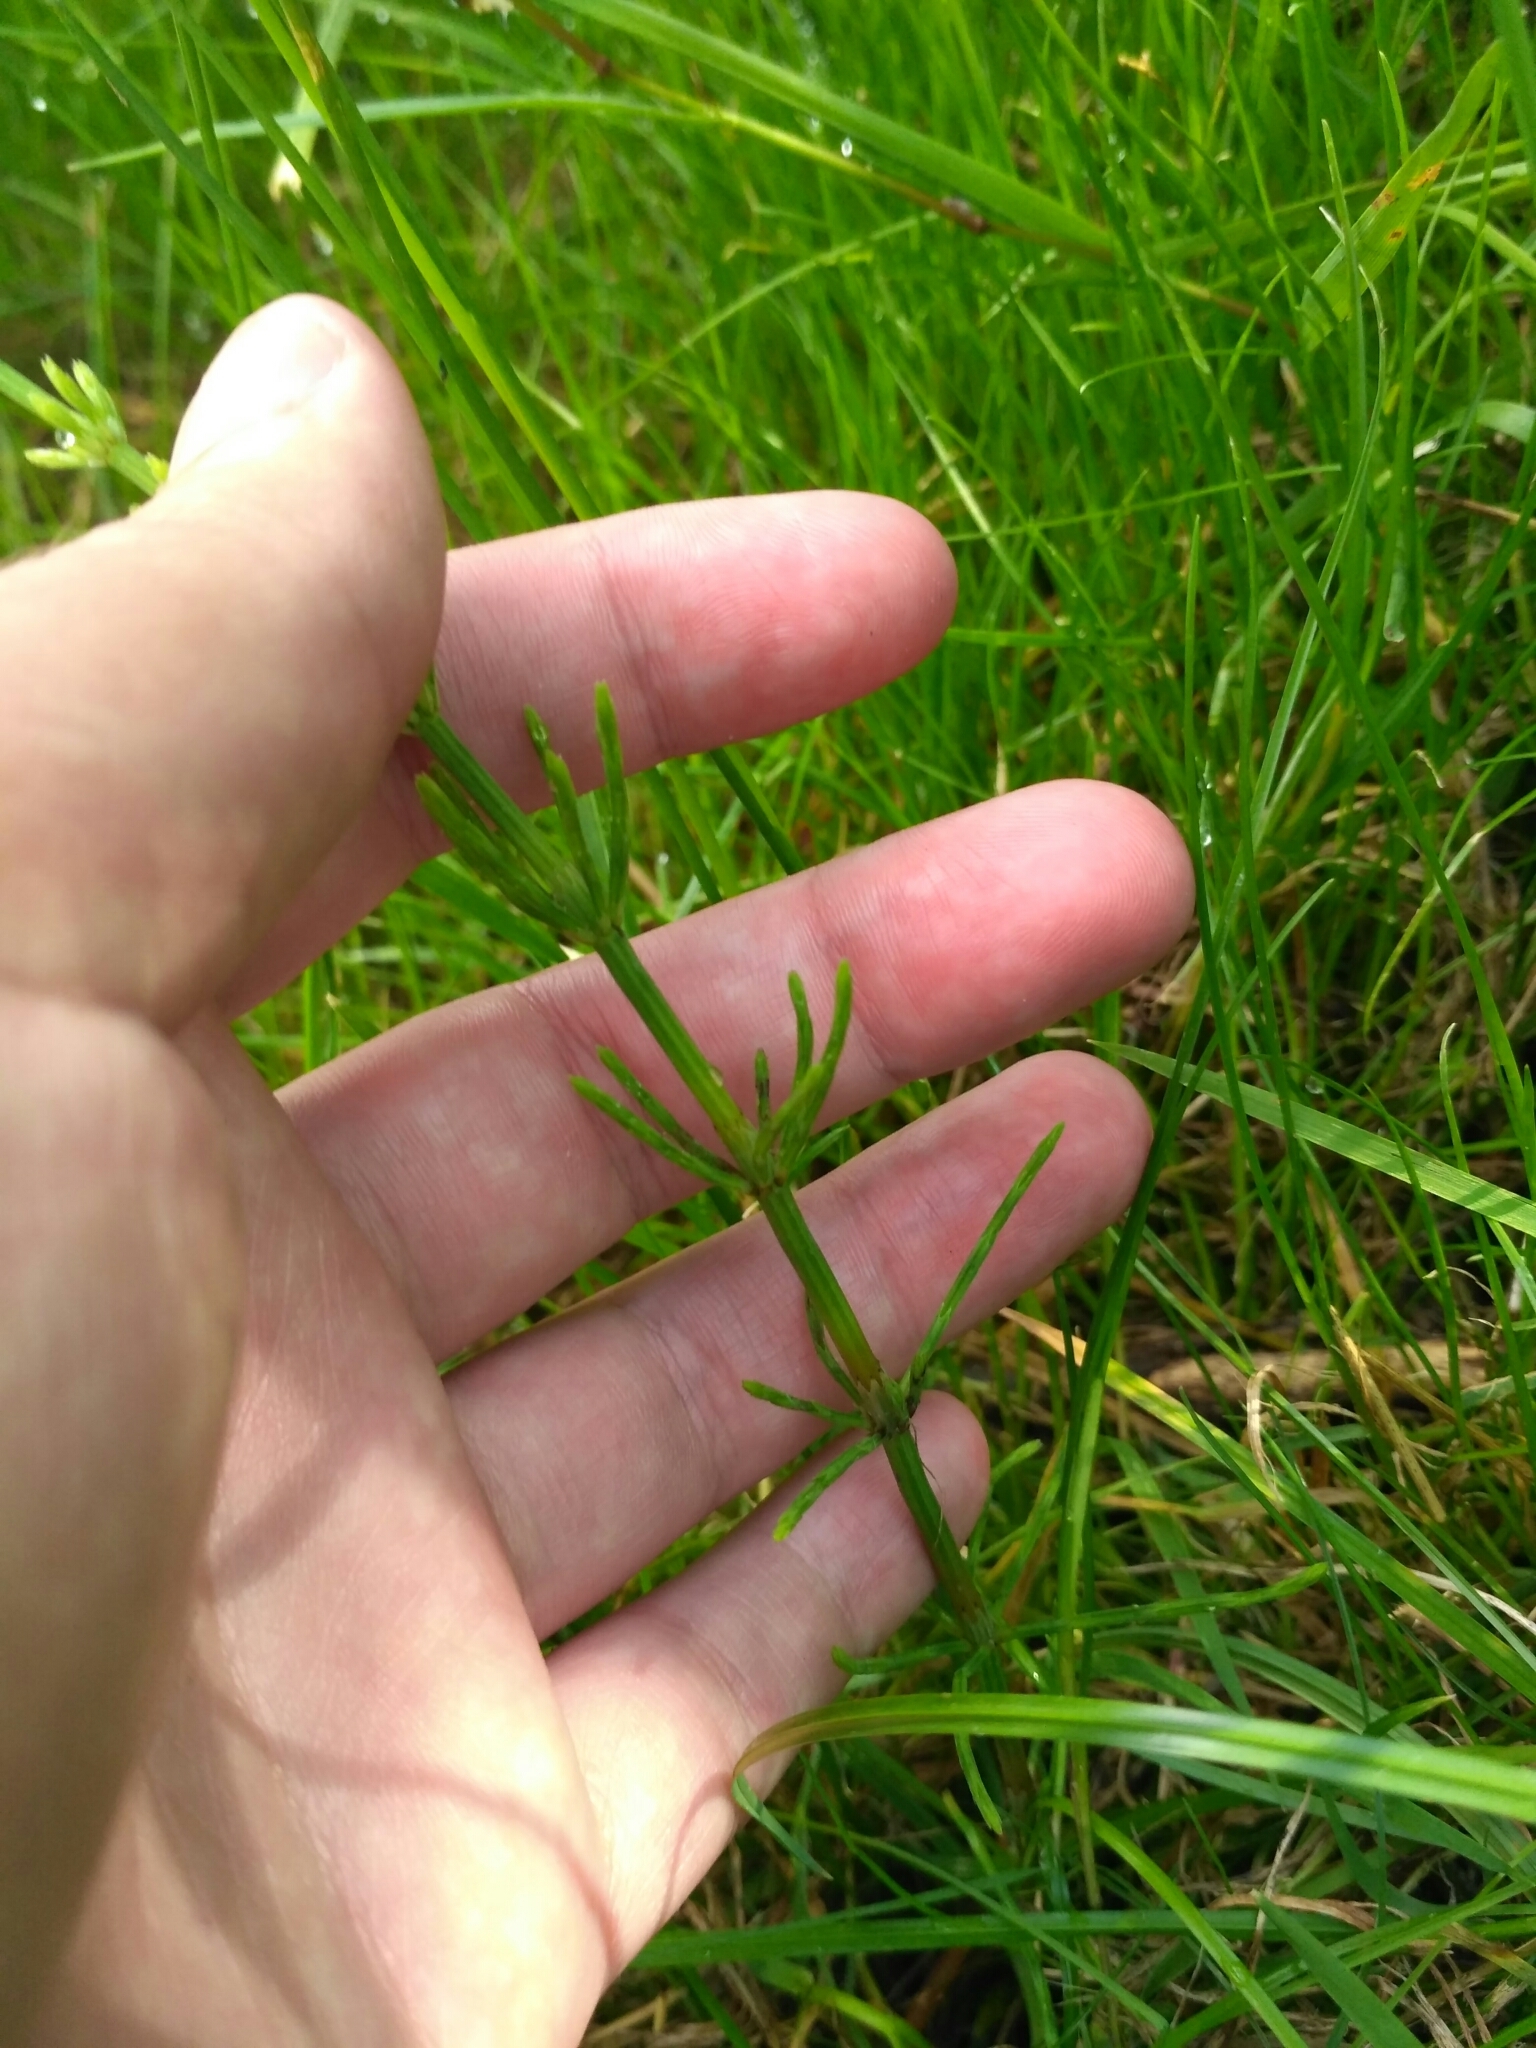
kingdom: Plantae
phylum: Tracheophyta
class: Polypodiopsida
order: Equisetales
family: Equisetaceae
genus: Equisetum
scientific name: Equisetum arvense
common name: Field horsetail
